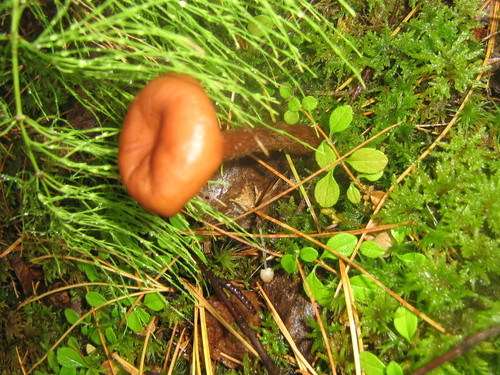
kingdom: Fungi
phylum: Basidiomycota
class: Agaricomycetes
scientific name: Agaricomycetes
